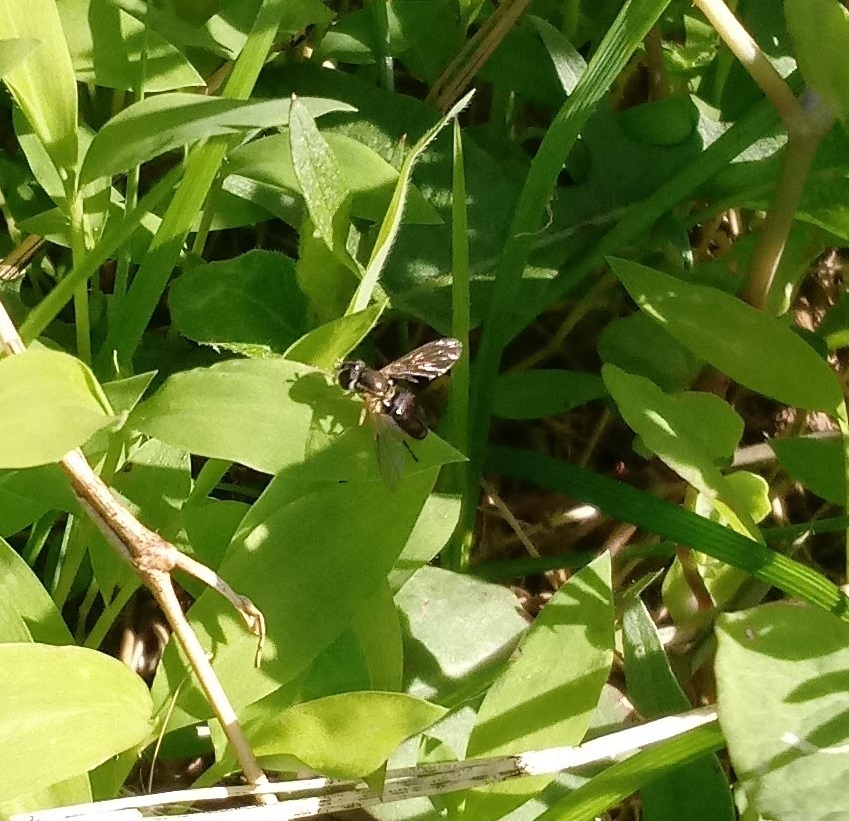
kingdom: Animalia
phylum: Arthropoda
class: Insecta
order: Diptera
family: Syrphidae
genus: Toxomerus
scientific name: Toxomerus marginatus
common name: Syrphid fly
